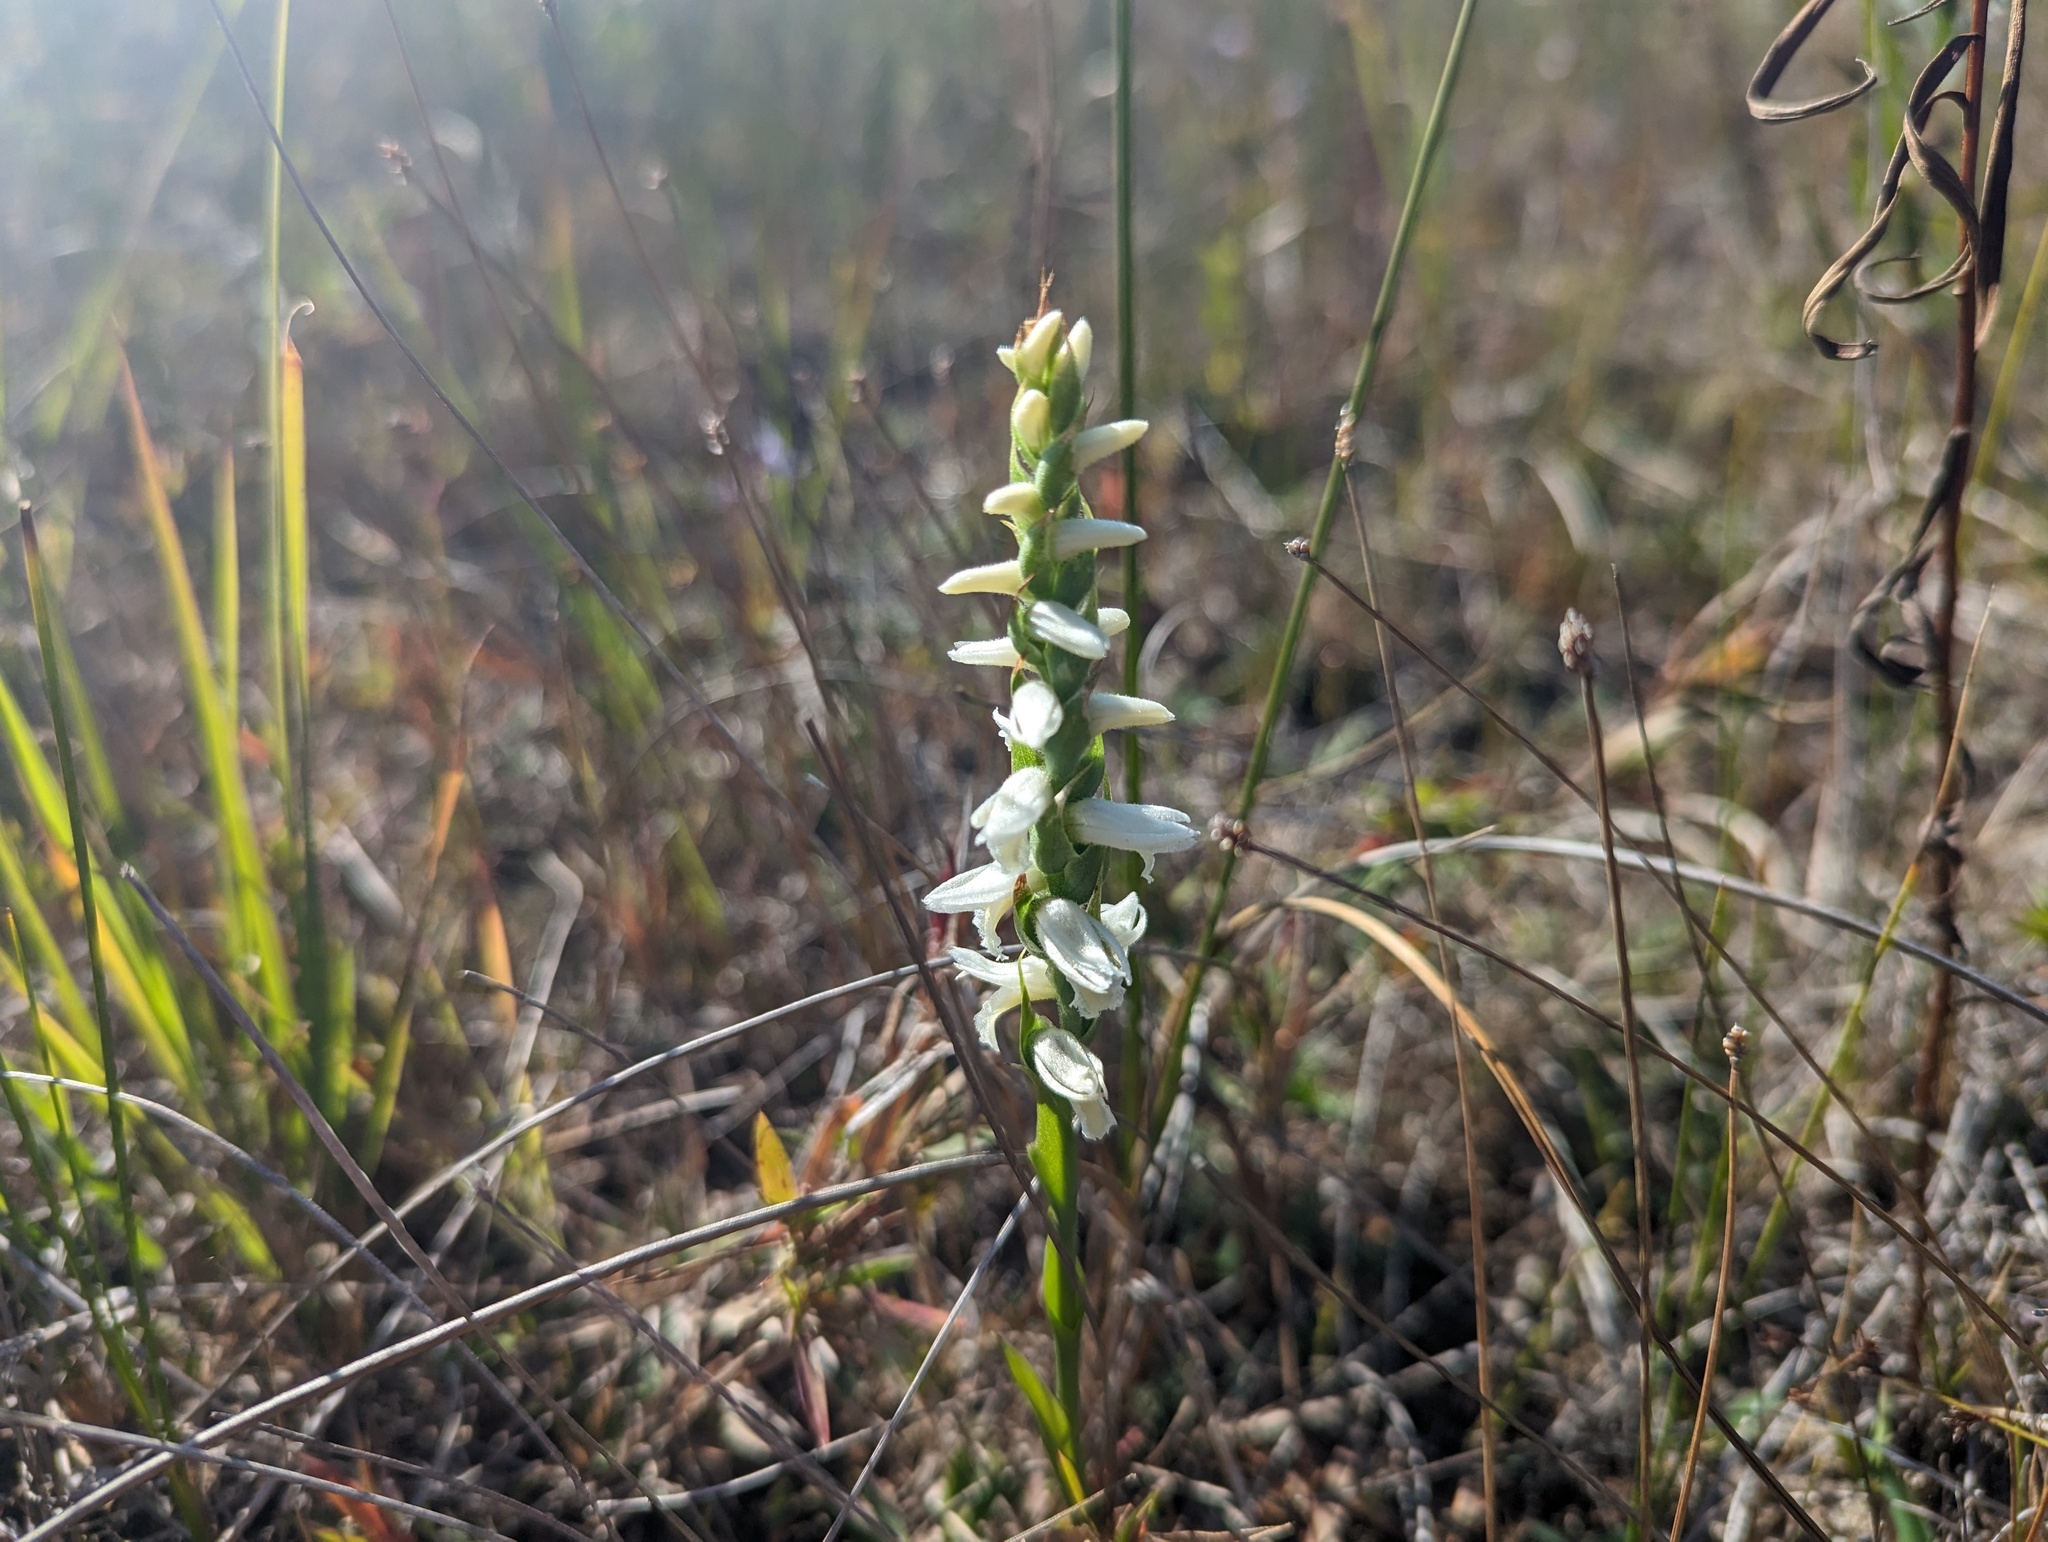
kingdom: Plantae
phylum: Tracheophyta
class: Liliopsida
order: Asparagales
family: Orchidaceae
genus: Spiranthes
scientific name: Spiranthes magnicamporum
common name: Great plains ladies'-tresses
